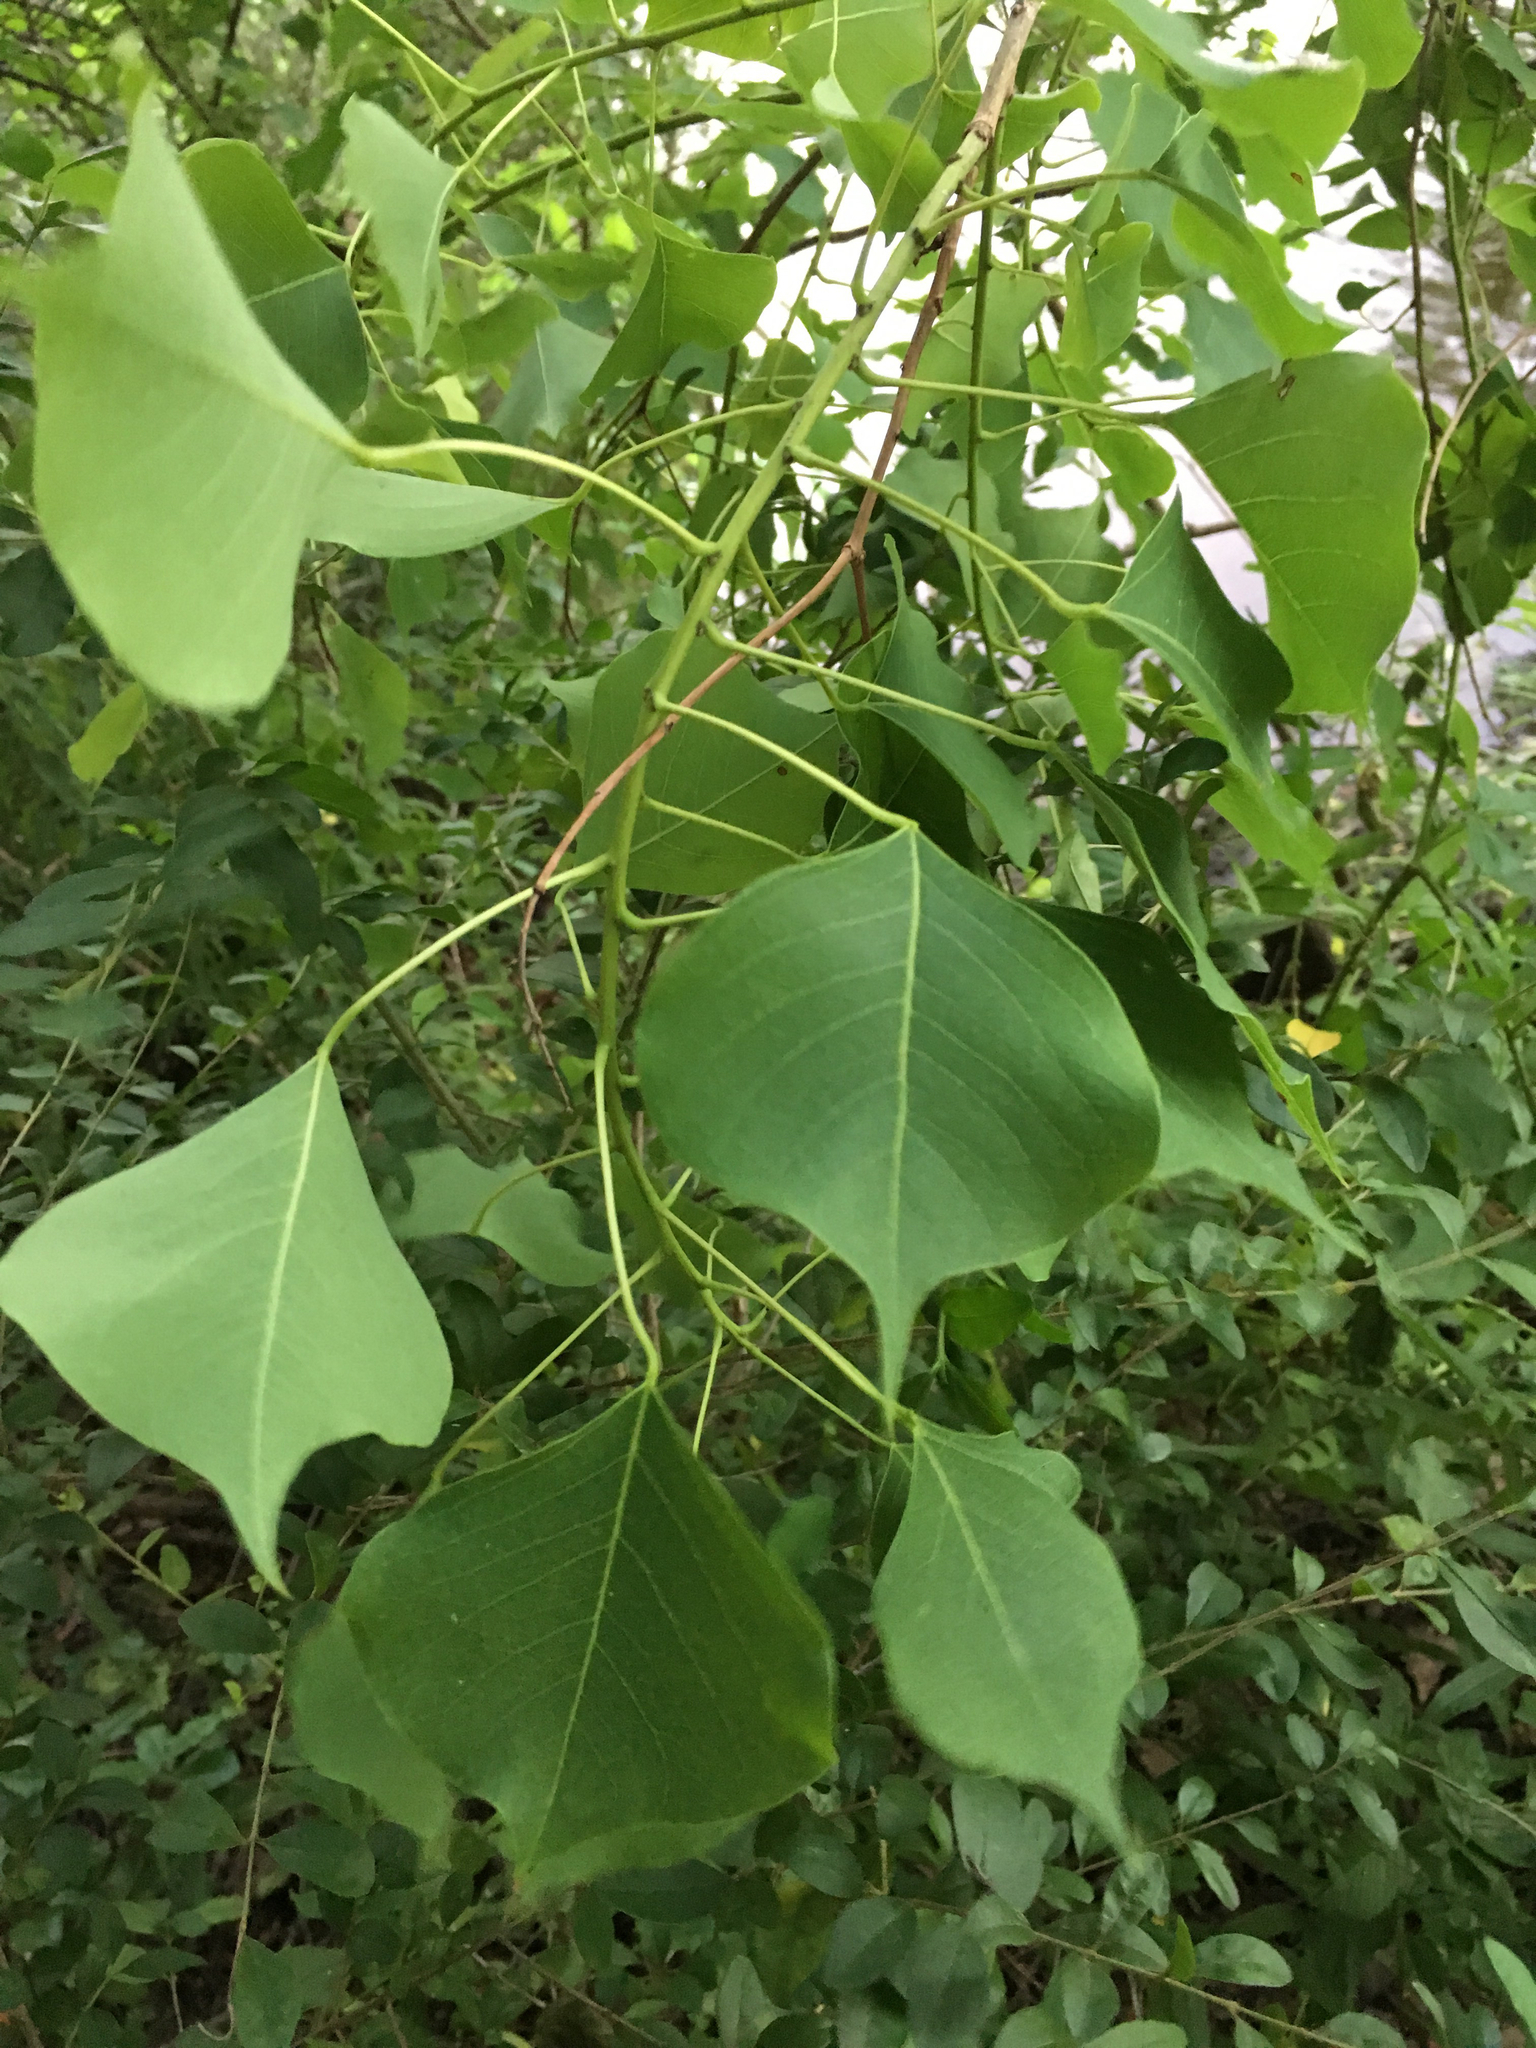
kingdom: Plantae
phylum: Tracheophyta
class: Magnoliopsida
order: Malpighiales
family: Euphorbiaceae
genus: Triadica
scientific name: Triadica sebifera
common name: Chinese tallow
